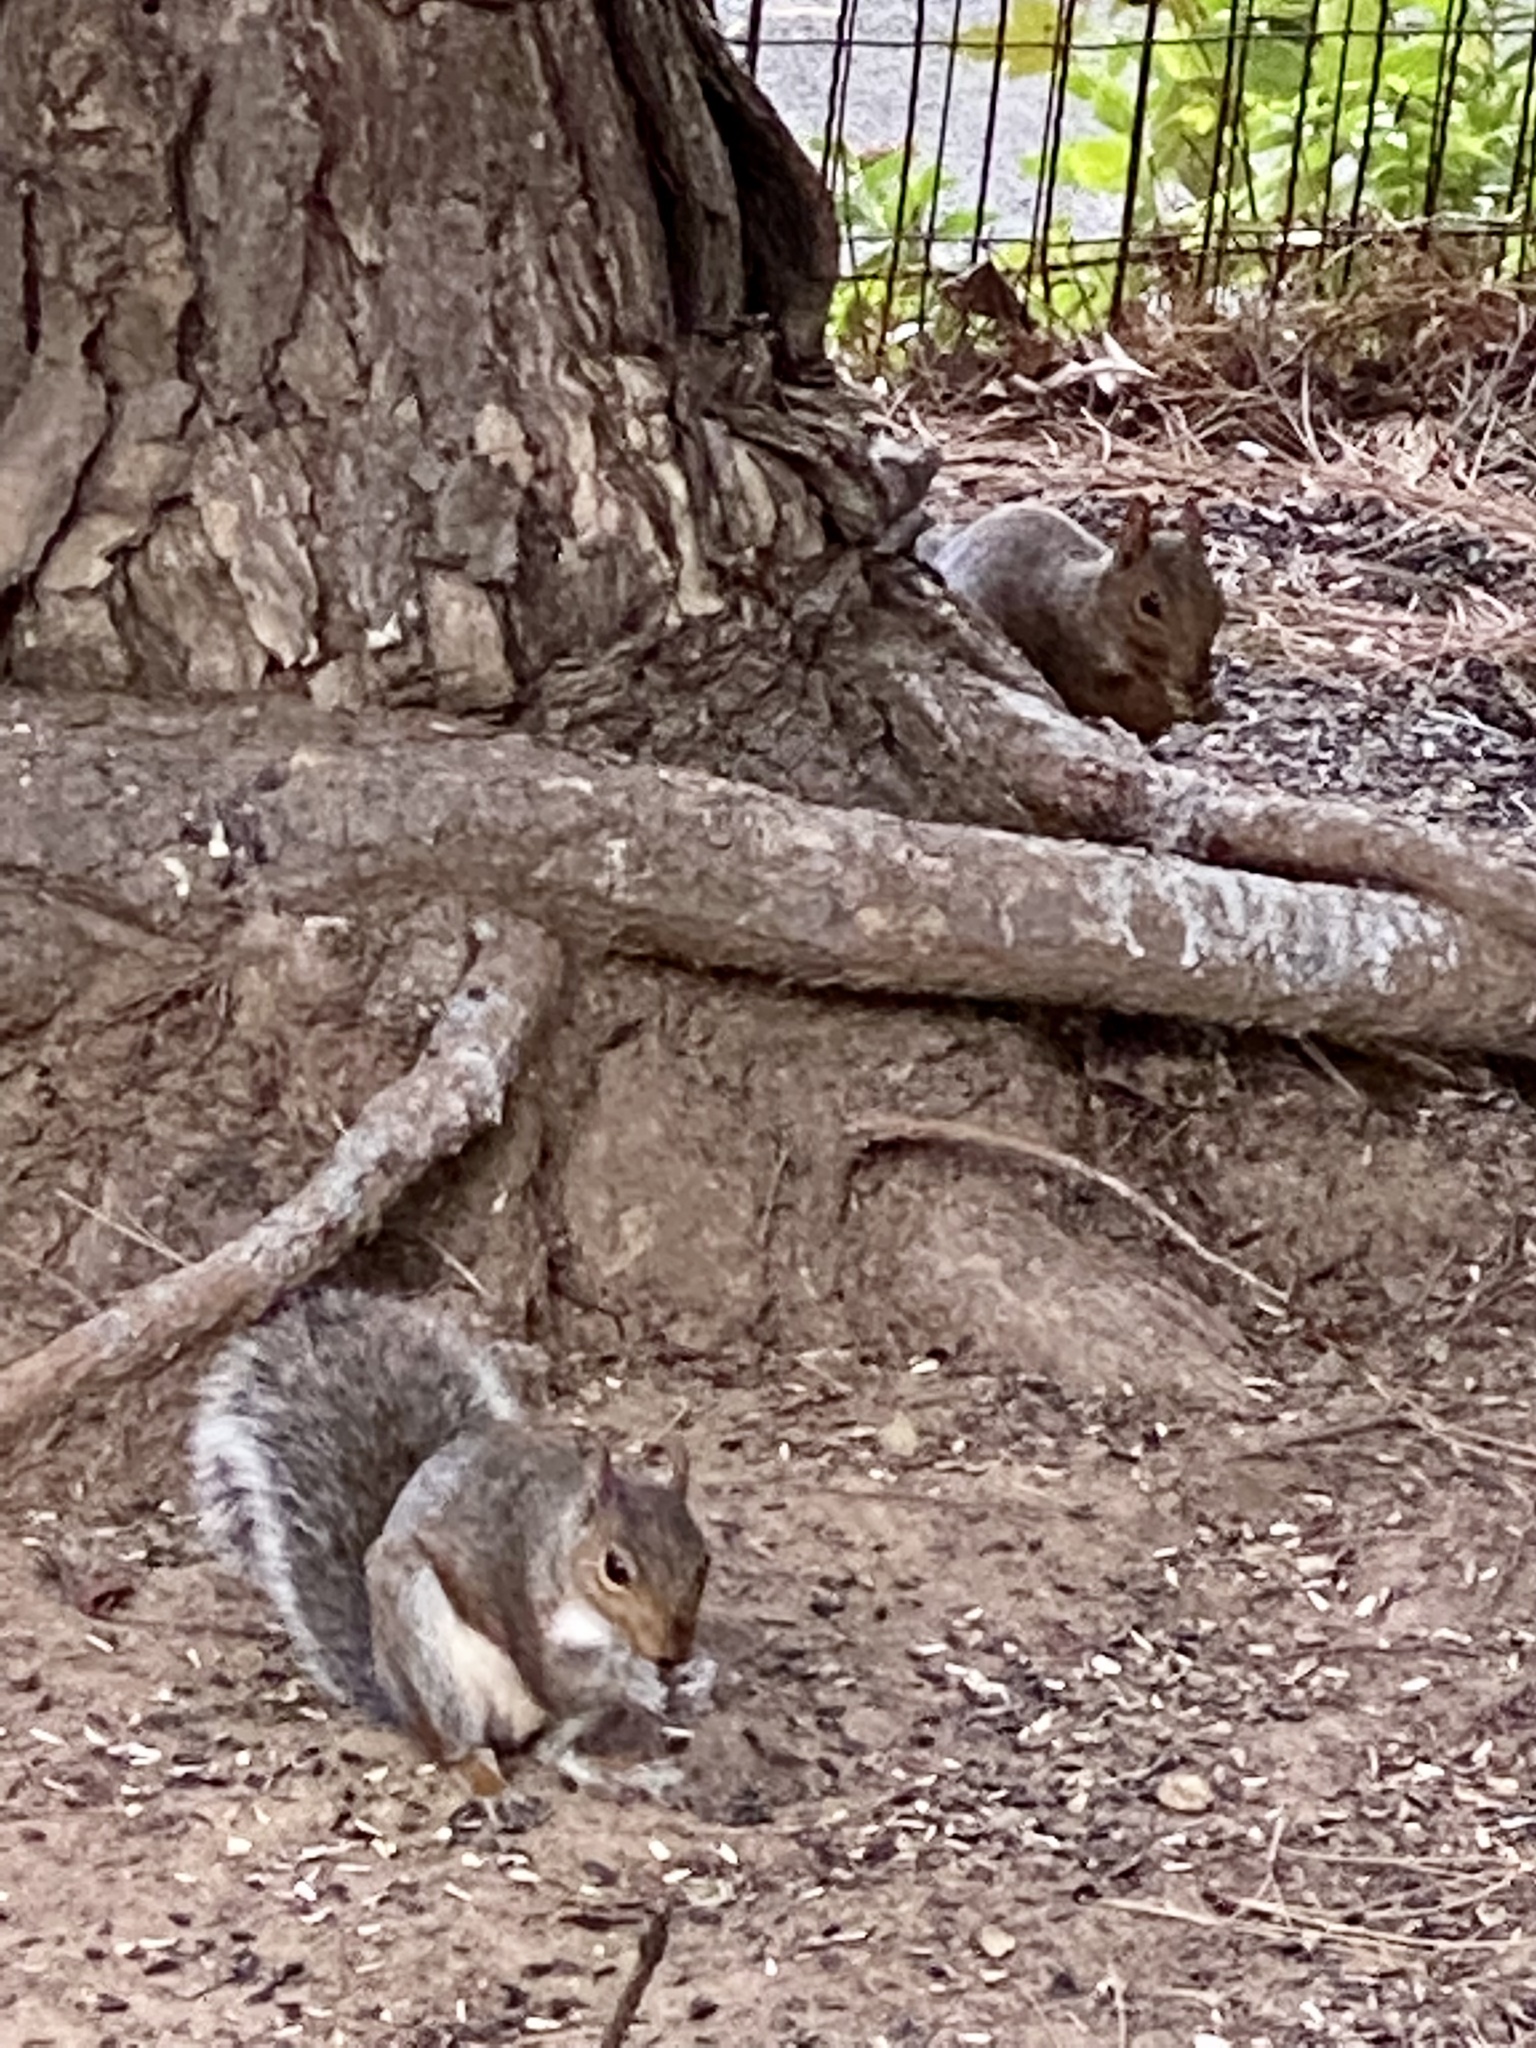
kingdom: Animalia
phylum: Chordata
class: Mammalia
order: Rodentia
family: Sciuridae
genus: Sciurus
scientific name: Sciurus carolinensis
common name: Eastern gray squirrel
